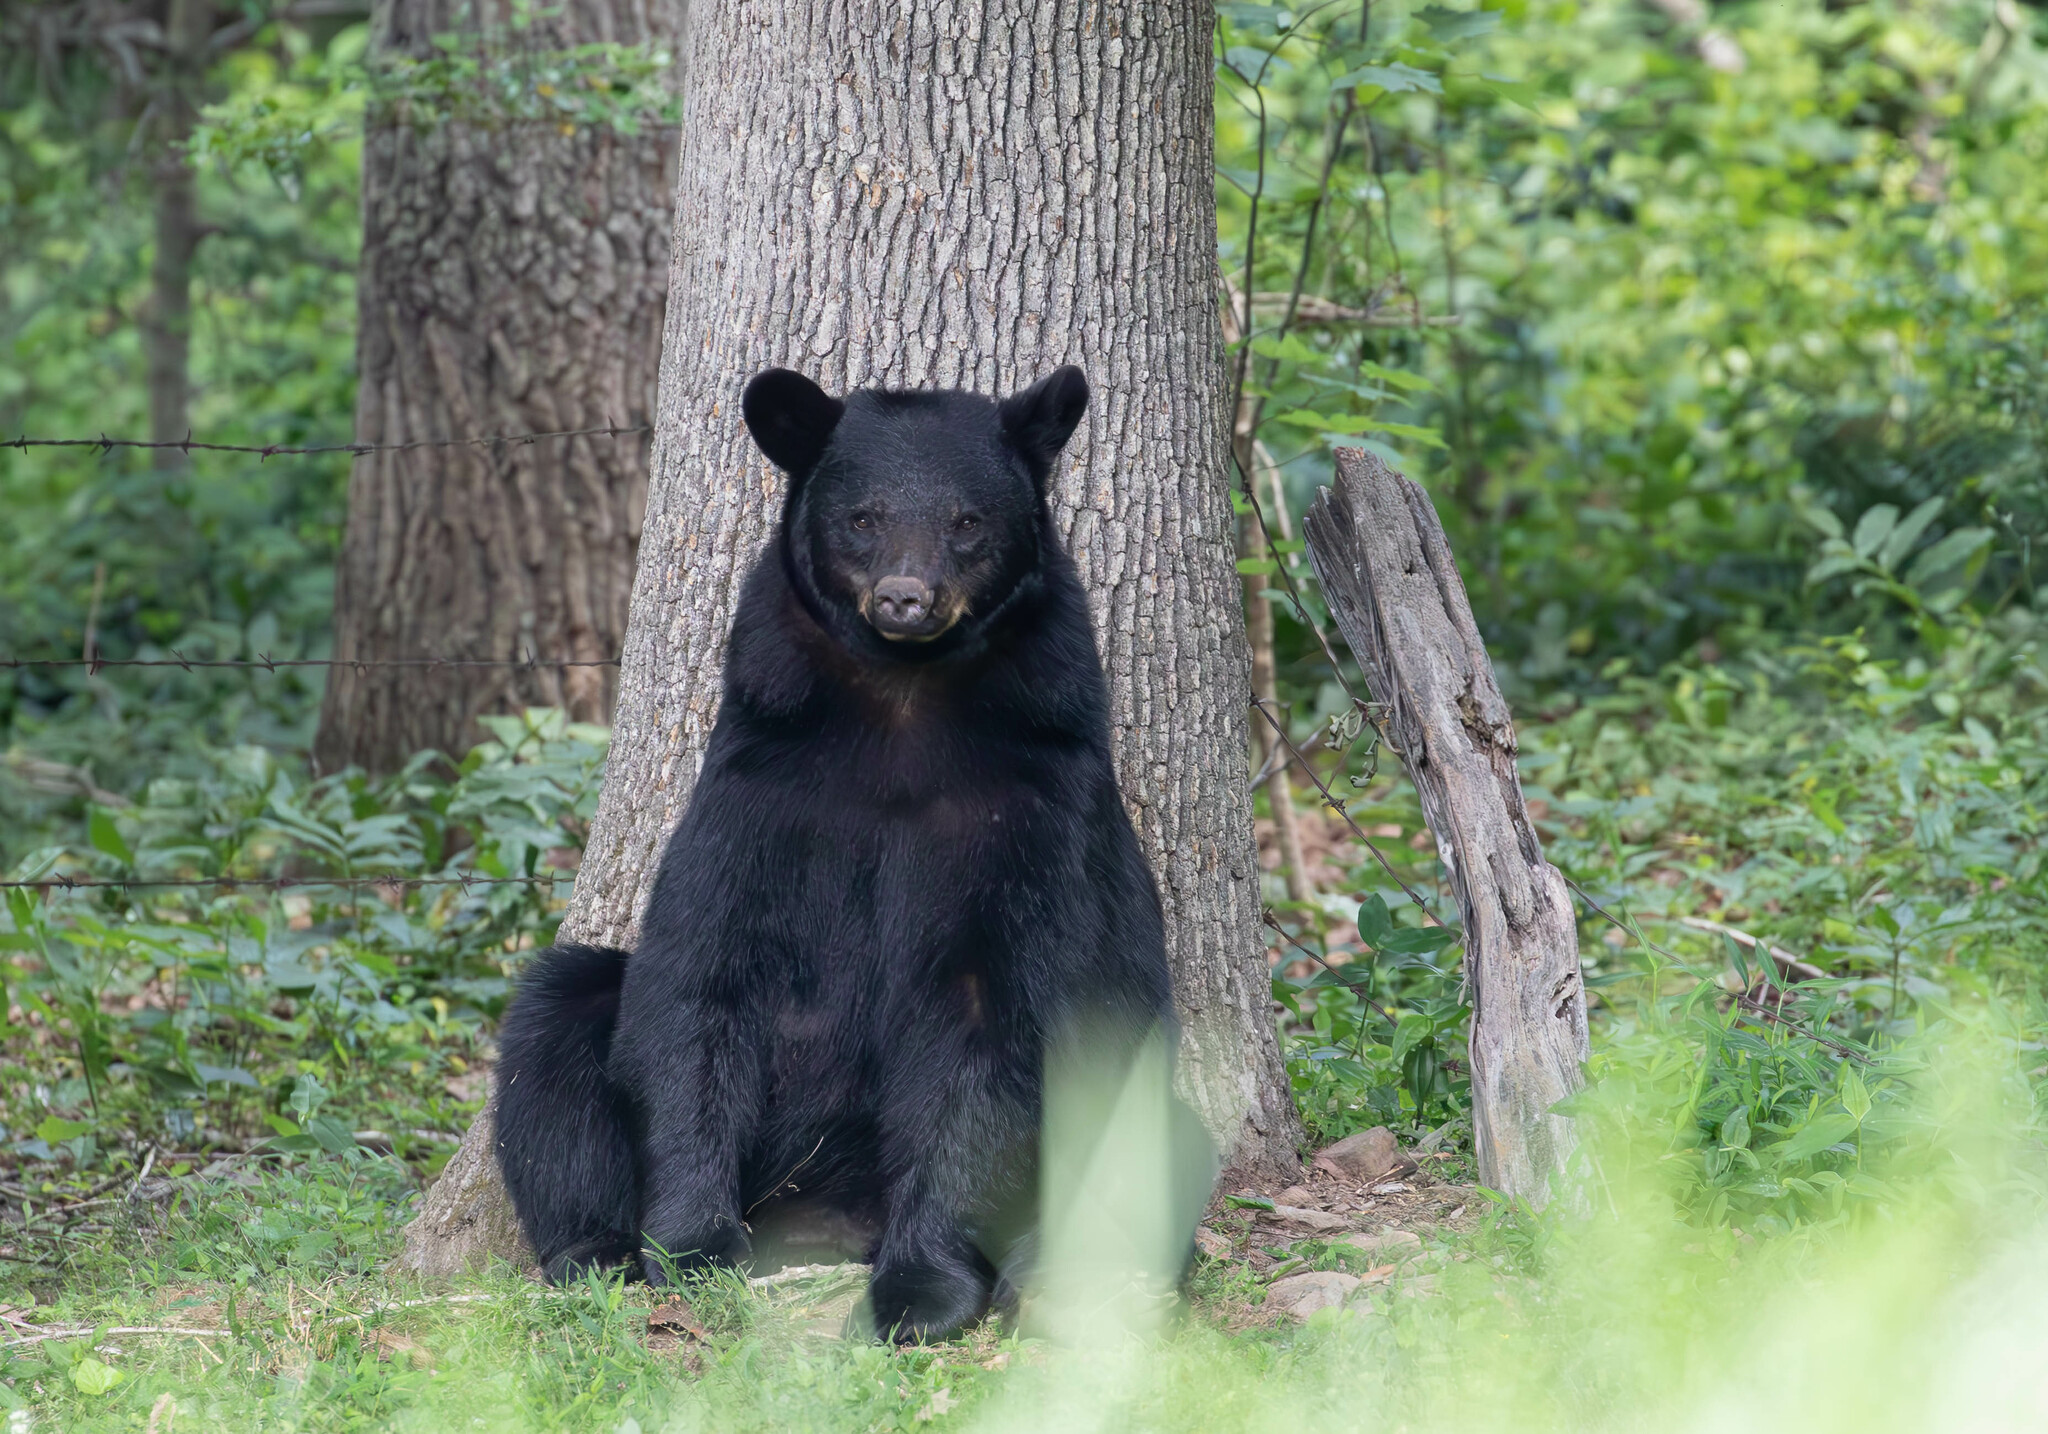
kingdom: Animalia
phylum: Chordata
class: Mammalia
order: Carnivora
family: Ursidae
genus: Ursus
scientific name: Ursus americanus
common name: American black bear
